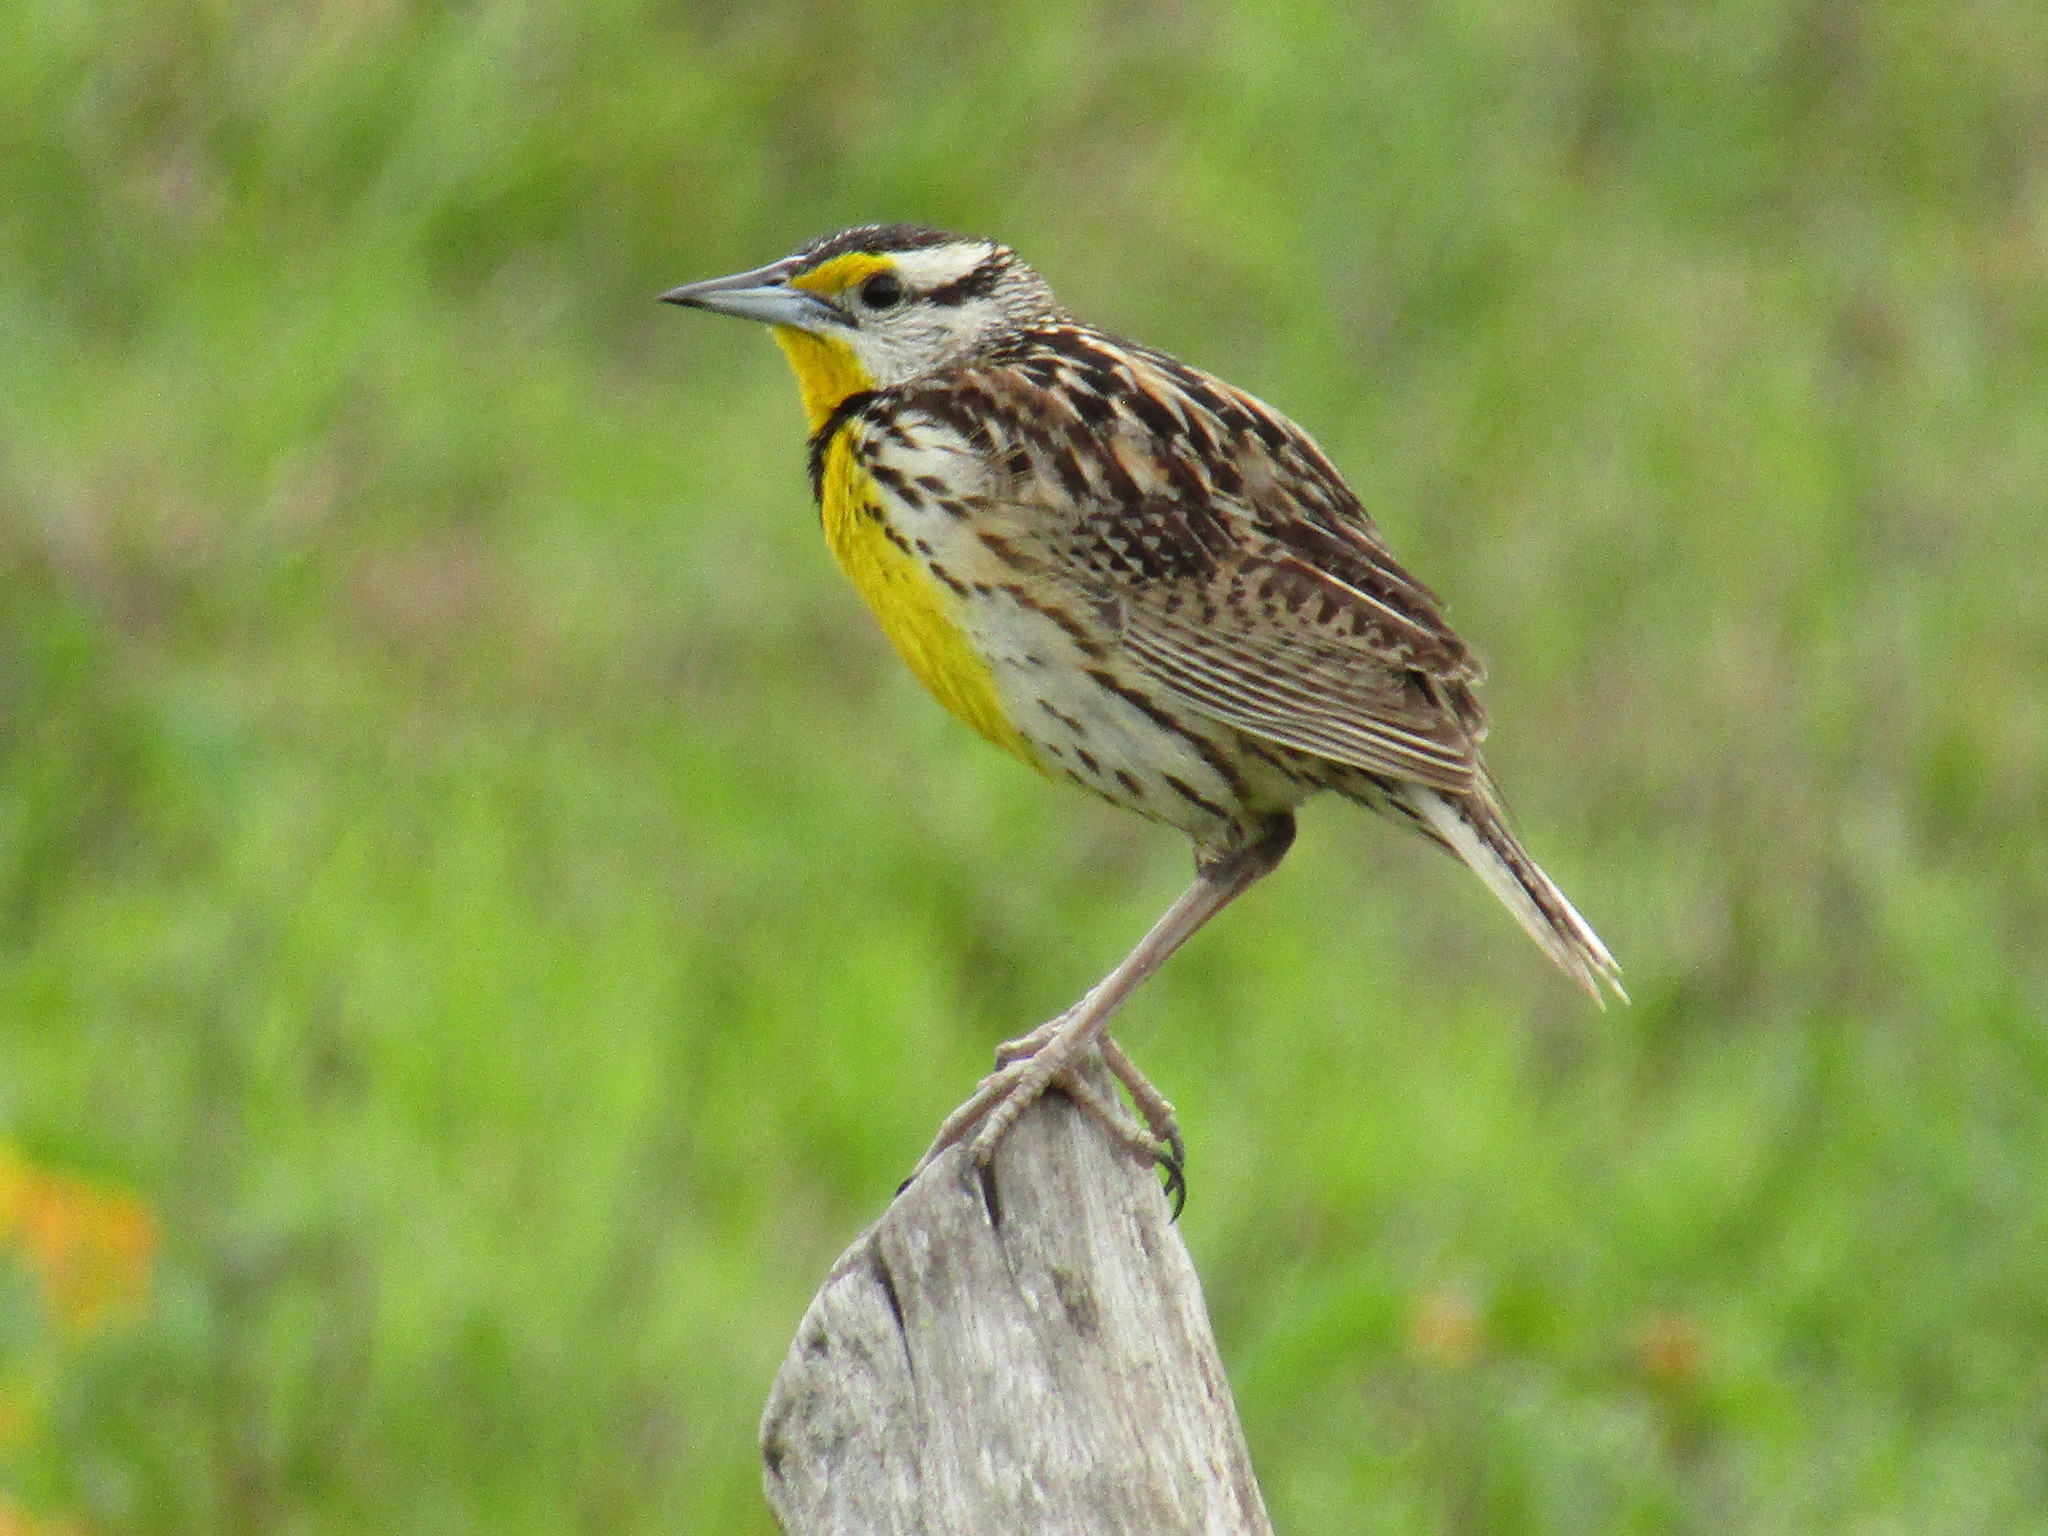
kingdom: Animalia
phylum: Chordata
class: Aves
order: Passeriformes
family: Icteridae
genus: Sturnella
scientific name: Sturnella magna
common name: Eastern meadowlark
